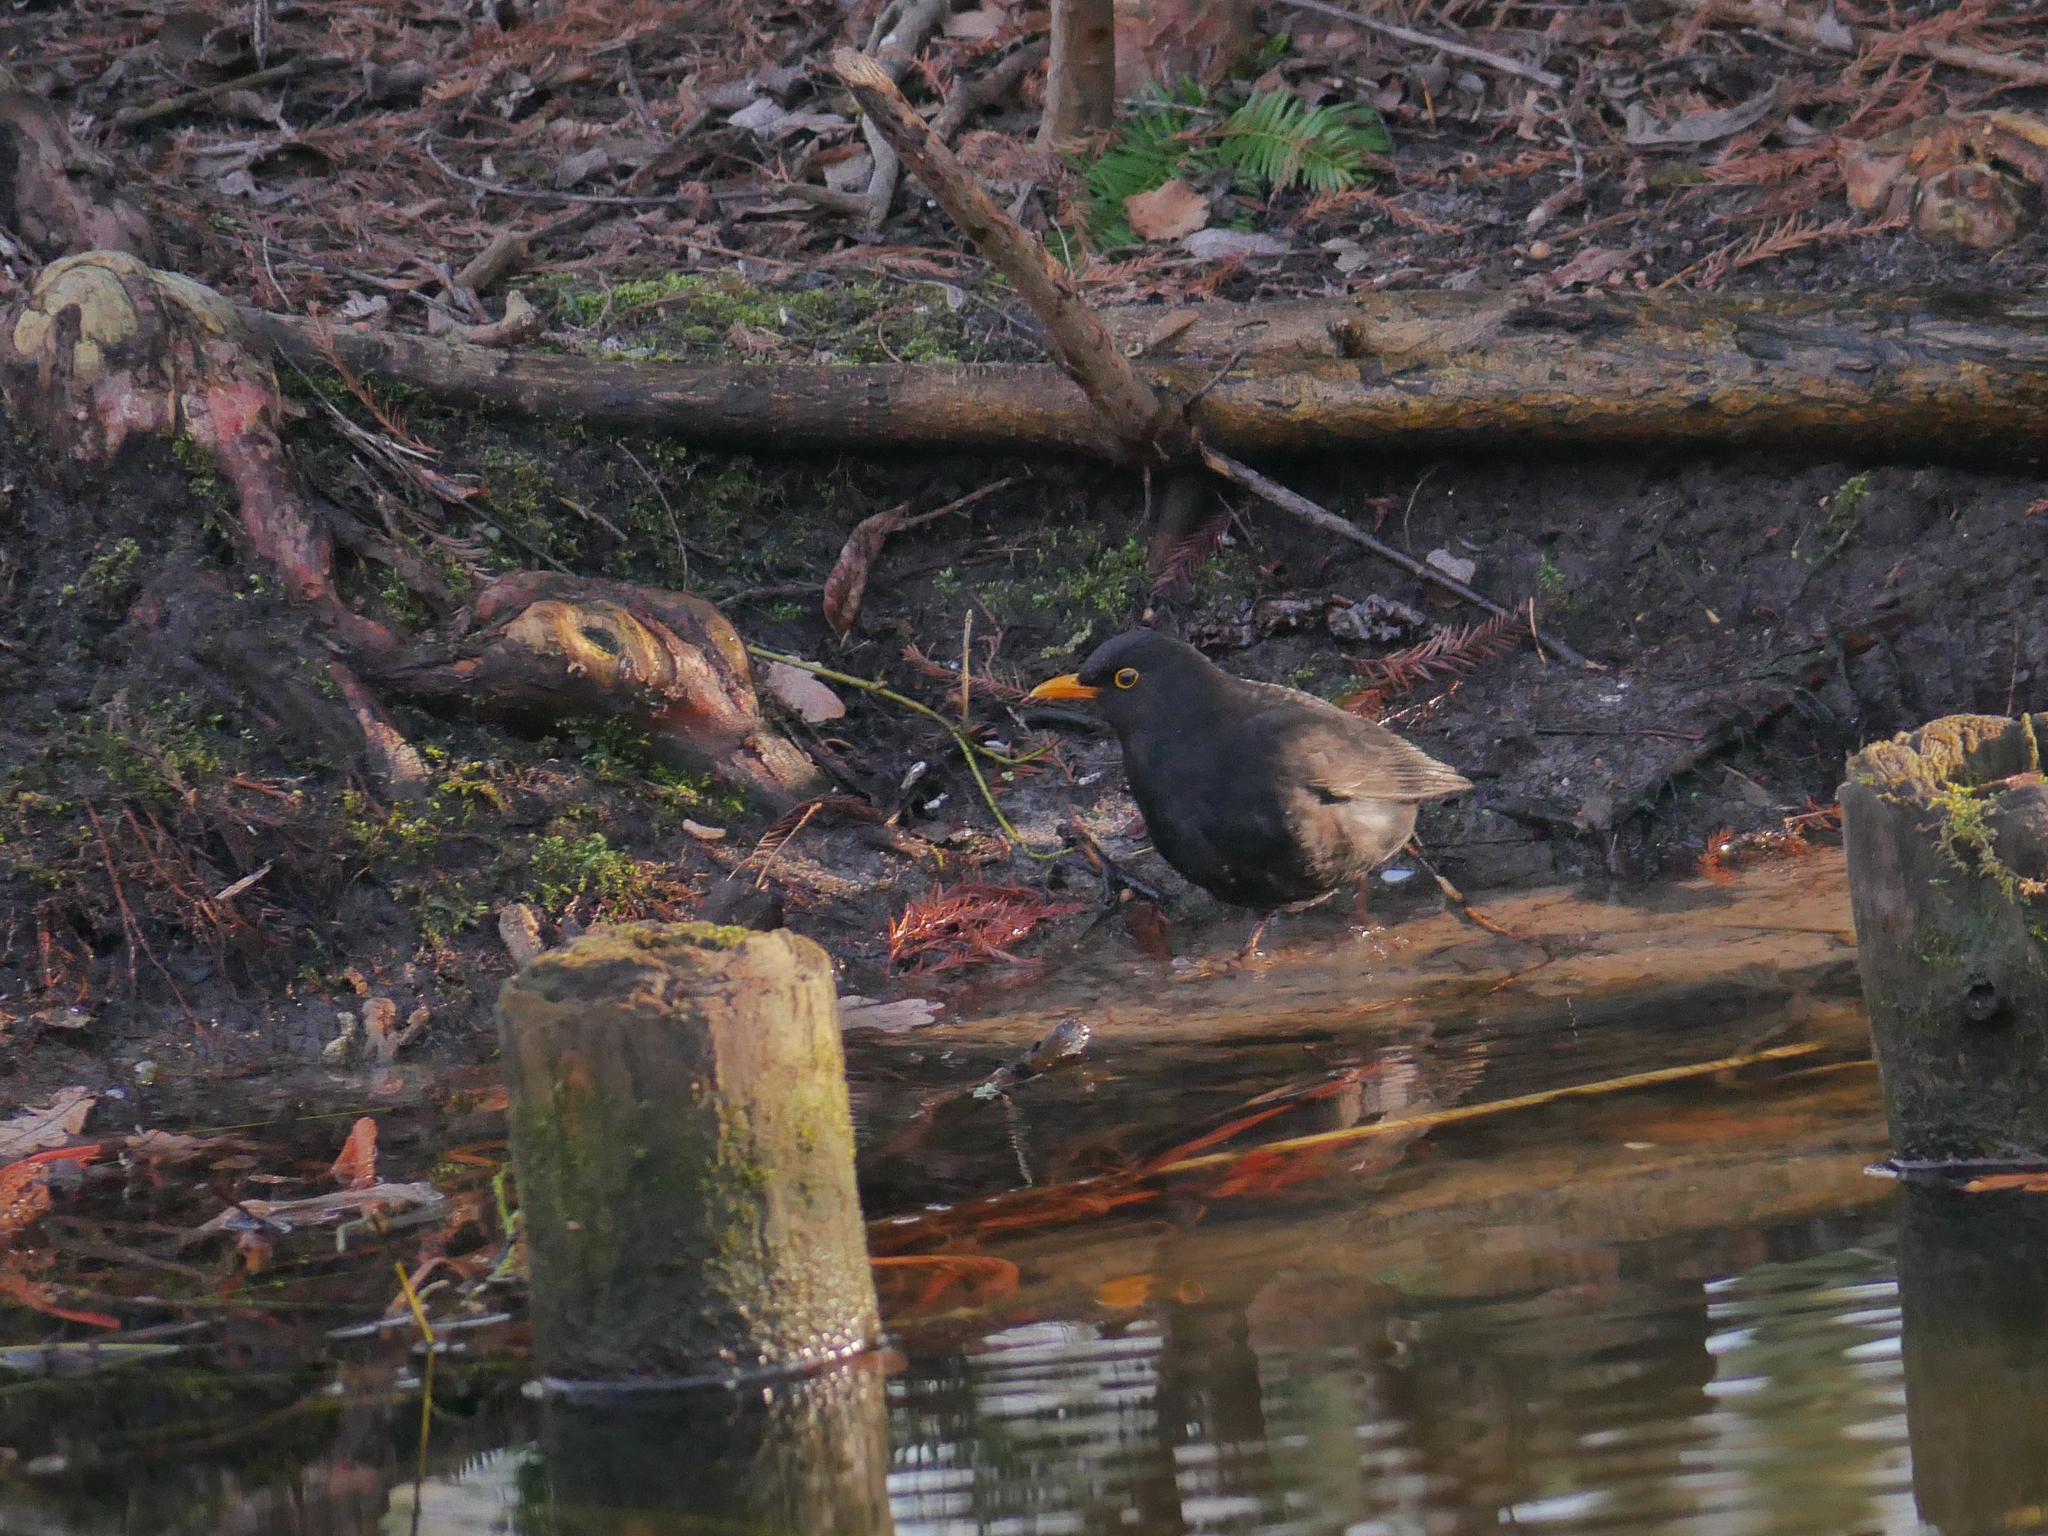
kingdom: Animalia
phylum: Chordata
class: Aves
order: Passeriformes
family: Turdidae
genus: Turdus
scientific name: Turdus merula
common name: Common blackbird
